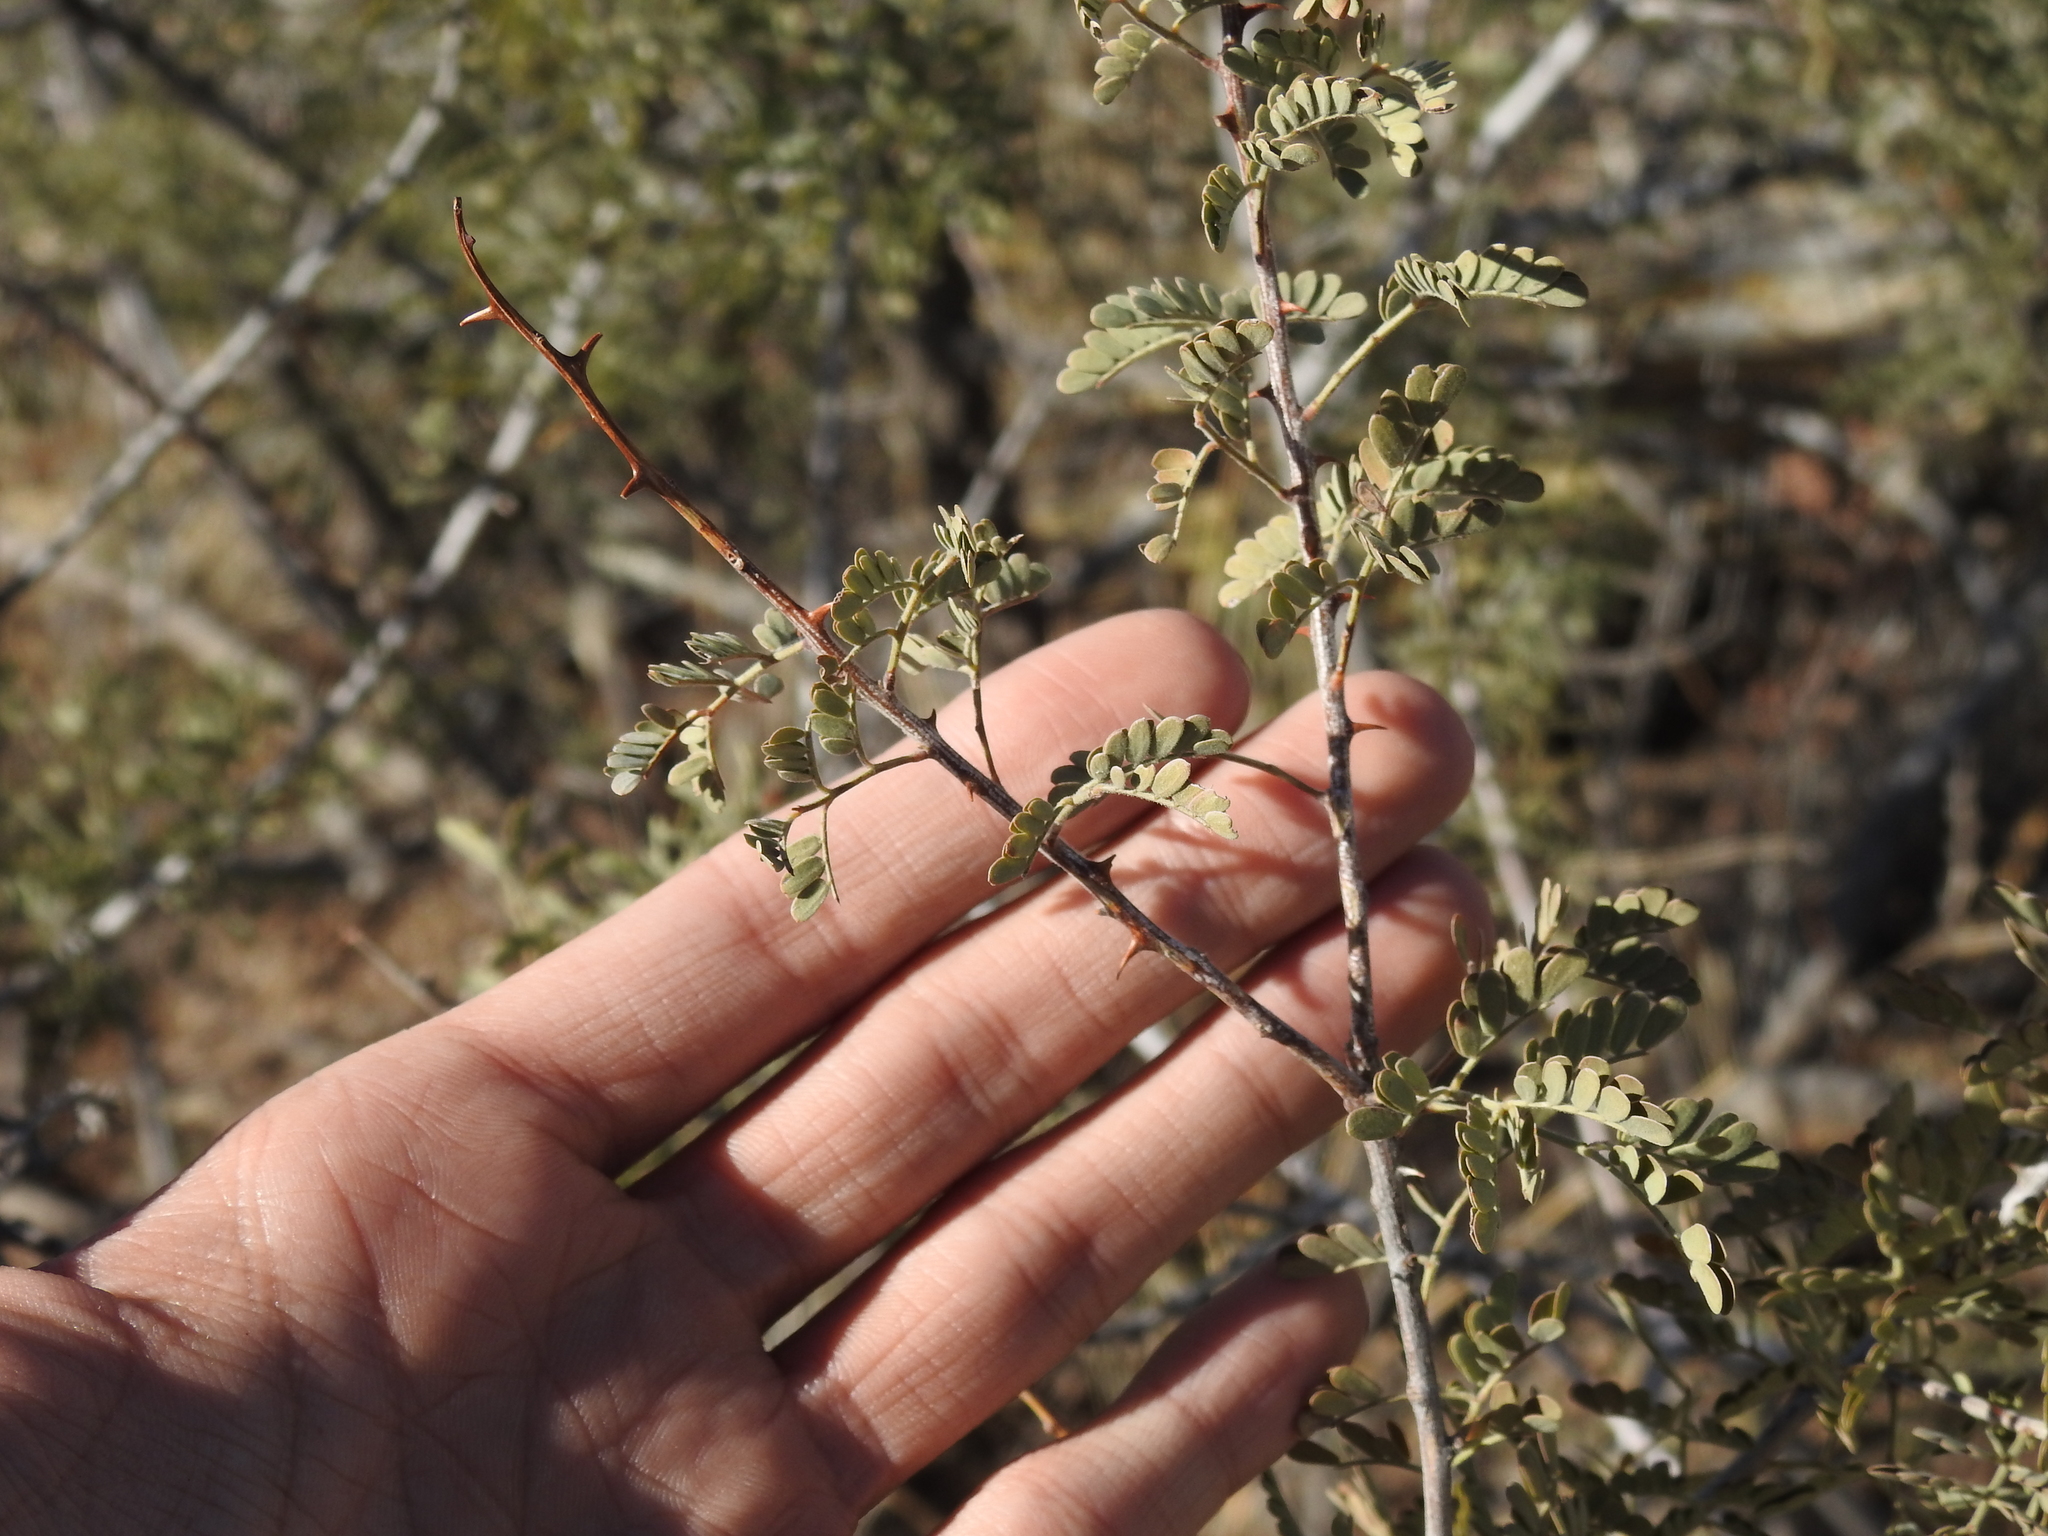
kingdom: Plantae
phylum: Tracheophyta
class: Magnoliopsida
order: Fabales
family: Fabaceae
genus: Senegalia
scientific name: Senegalia greggii
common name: Texas-mimosa
